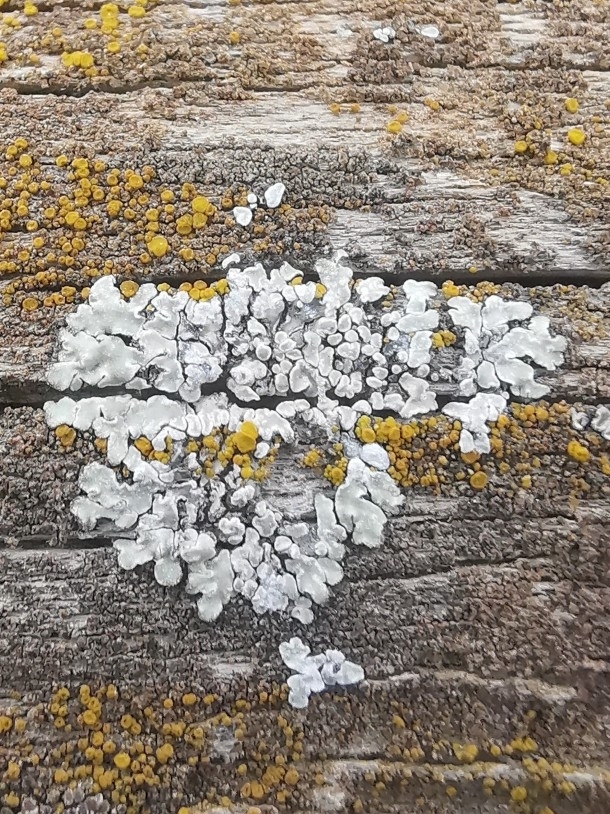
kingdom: Fungi
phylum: Ascomycota
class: Lecanoromycetes
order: Lecanorales
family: Lecanoraceae
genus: Protoparmeliopsis
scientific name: Protoparmeliopsis muralis
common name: Stonewall rim lichen
